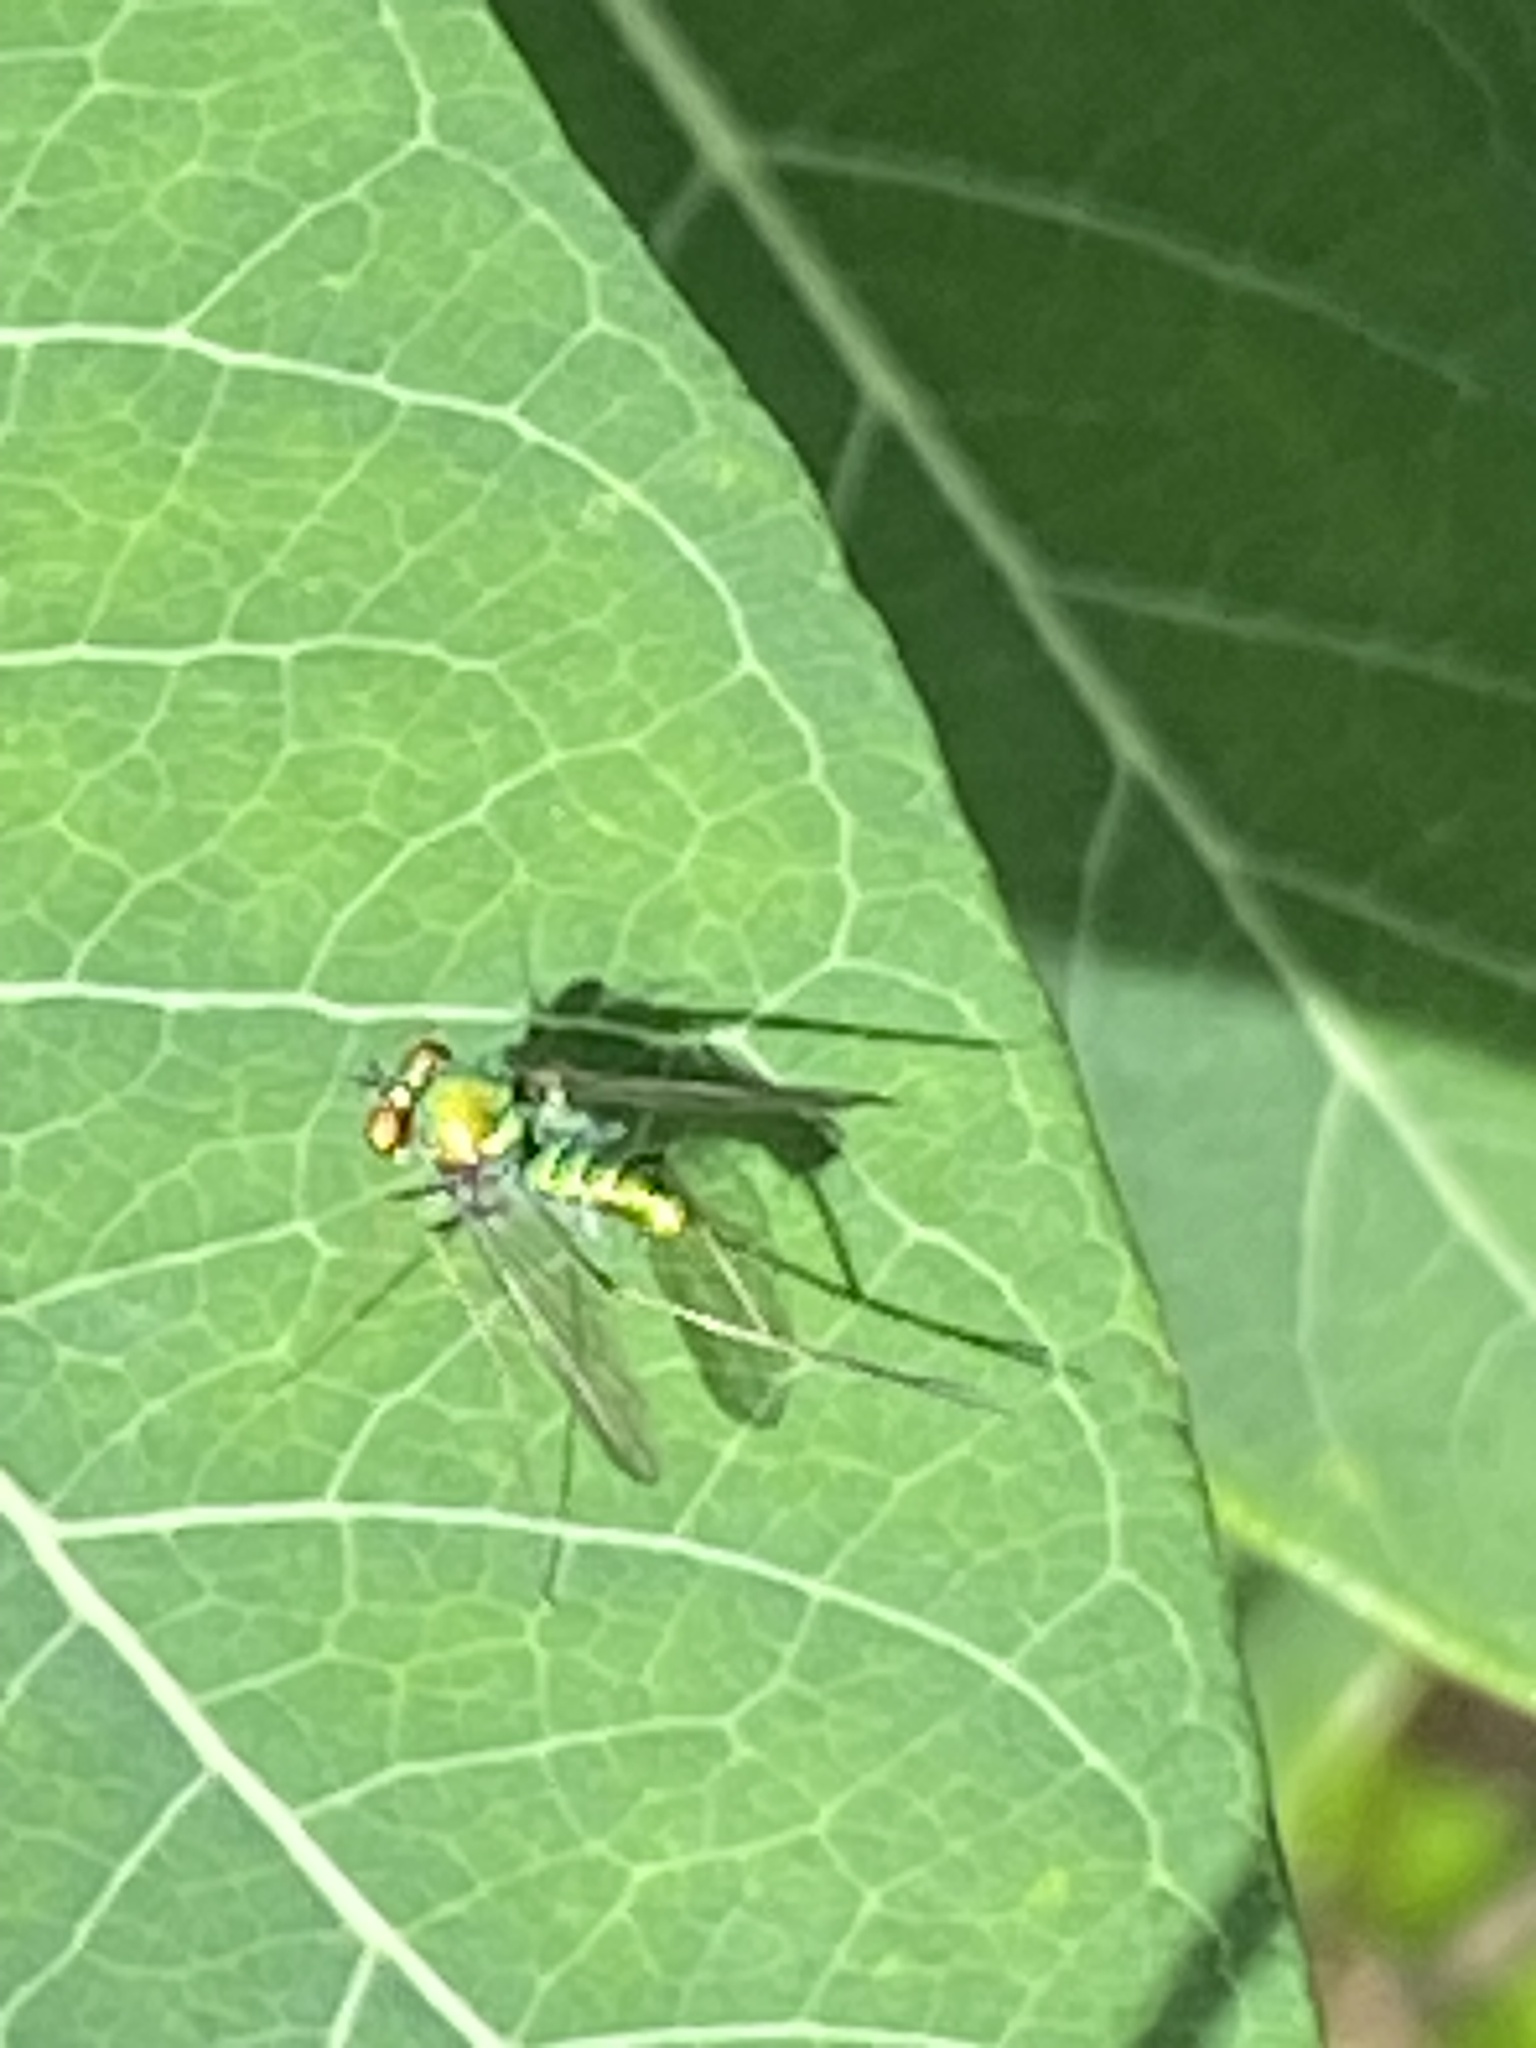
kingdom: Animalia
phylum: Arthropoda
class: Insecta
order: Diptera
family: Dolichopodidae
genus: Condylostylus
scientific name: Condylostylus comatus
